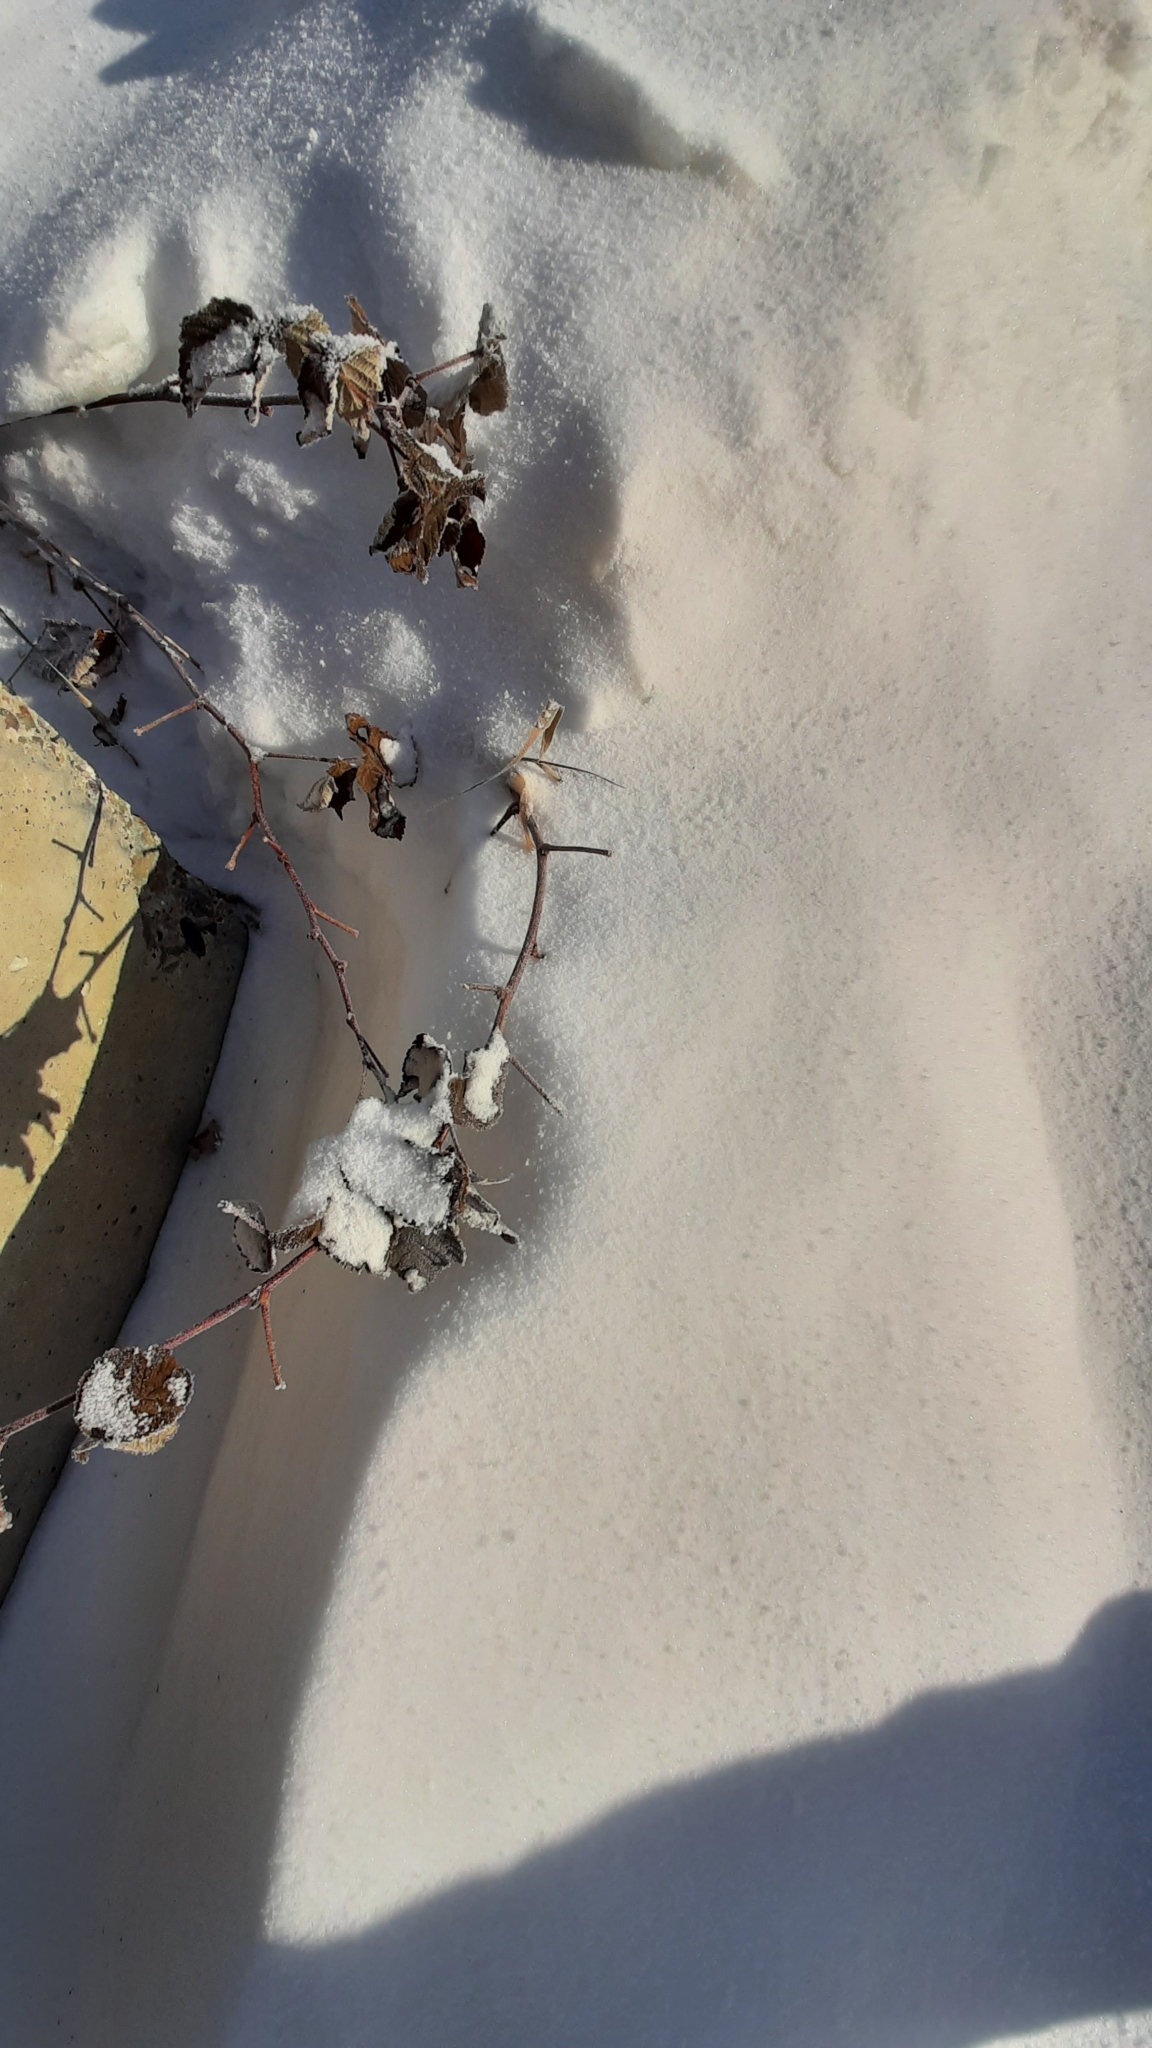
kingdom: Plantae
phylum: Tracheophyta
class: Magnoliopsida
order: Rosales
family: Rosaceae
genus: Rubus
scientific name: Rubus idaeus
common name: Raspberry
